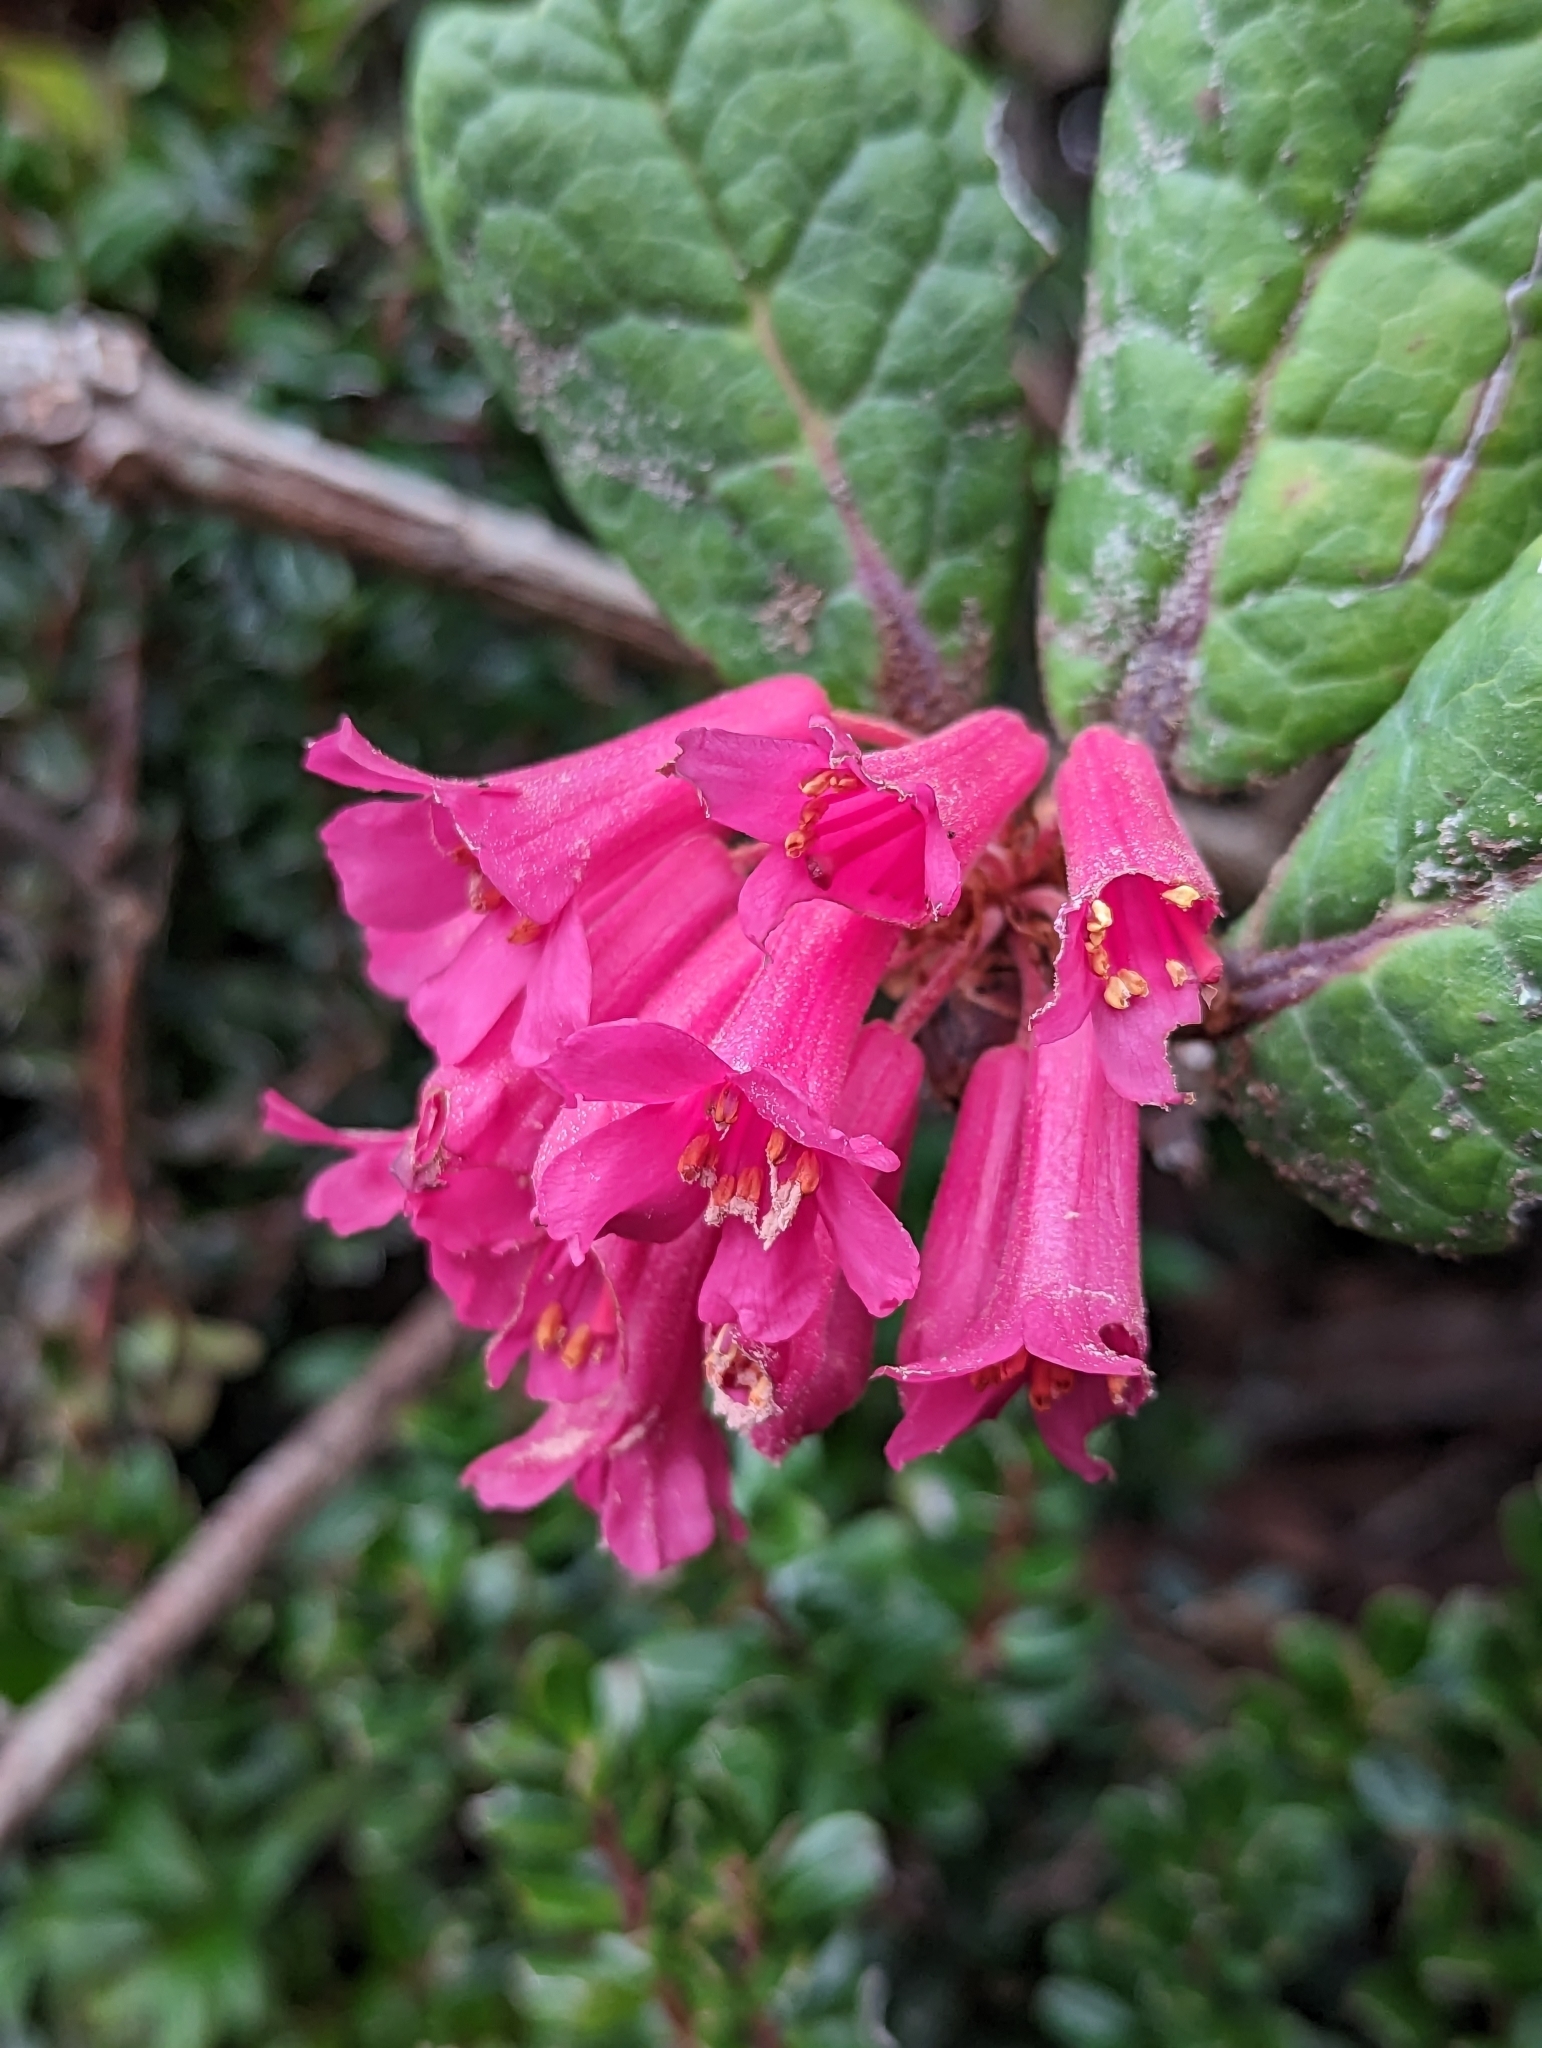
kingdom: Plantae
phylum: Tracheophyta
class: Magnoliopsida
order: Ericales
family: Ericaceae
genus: Rhododendron
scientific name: Rhododendron rugosum
